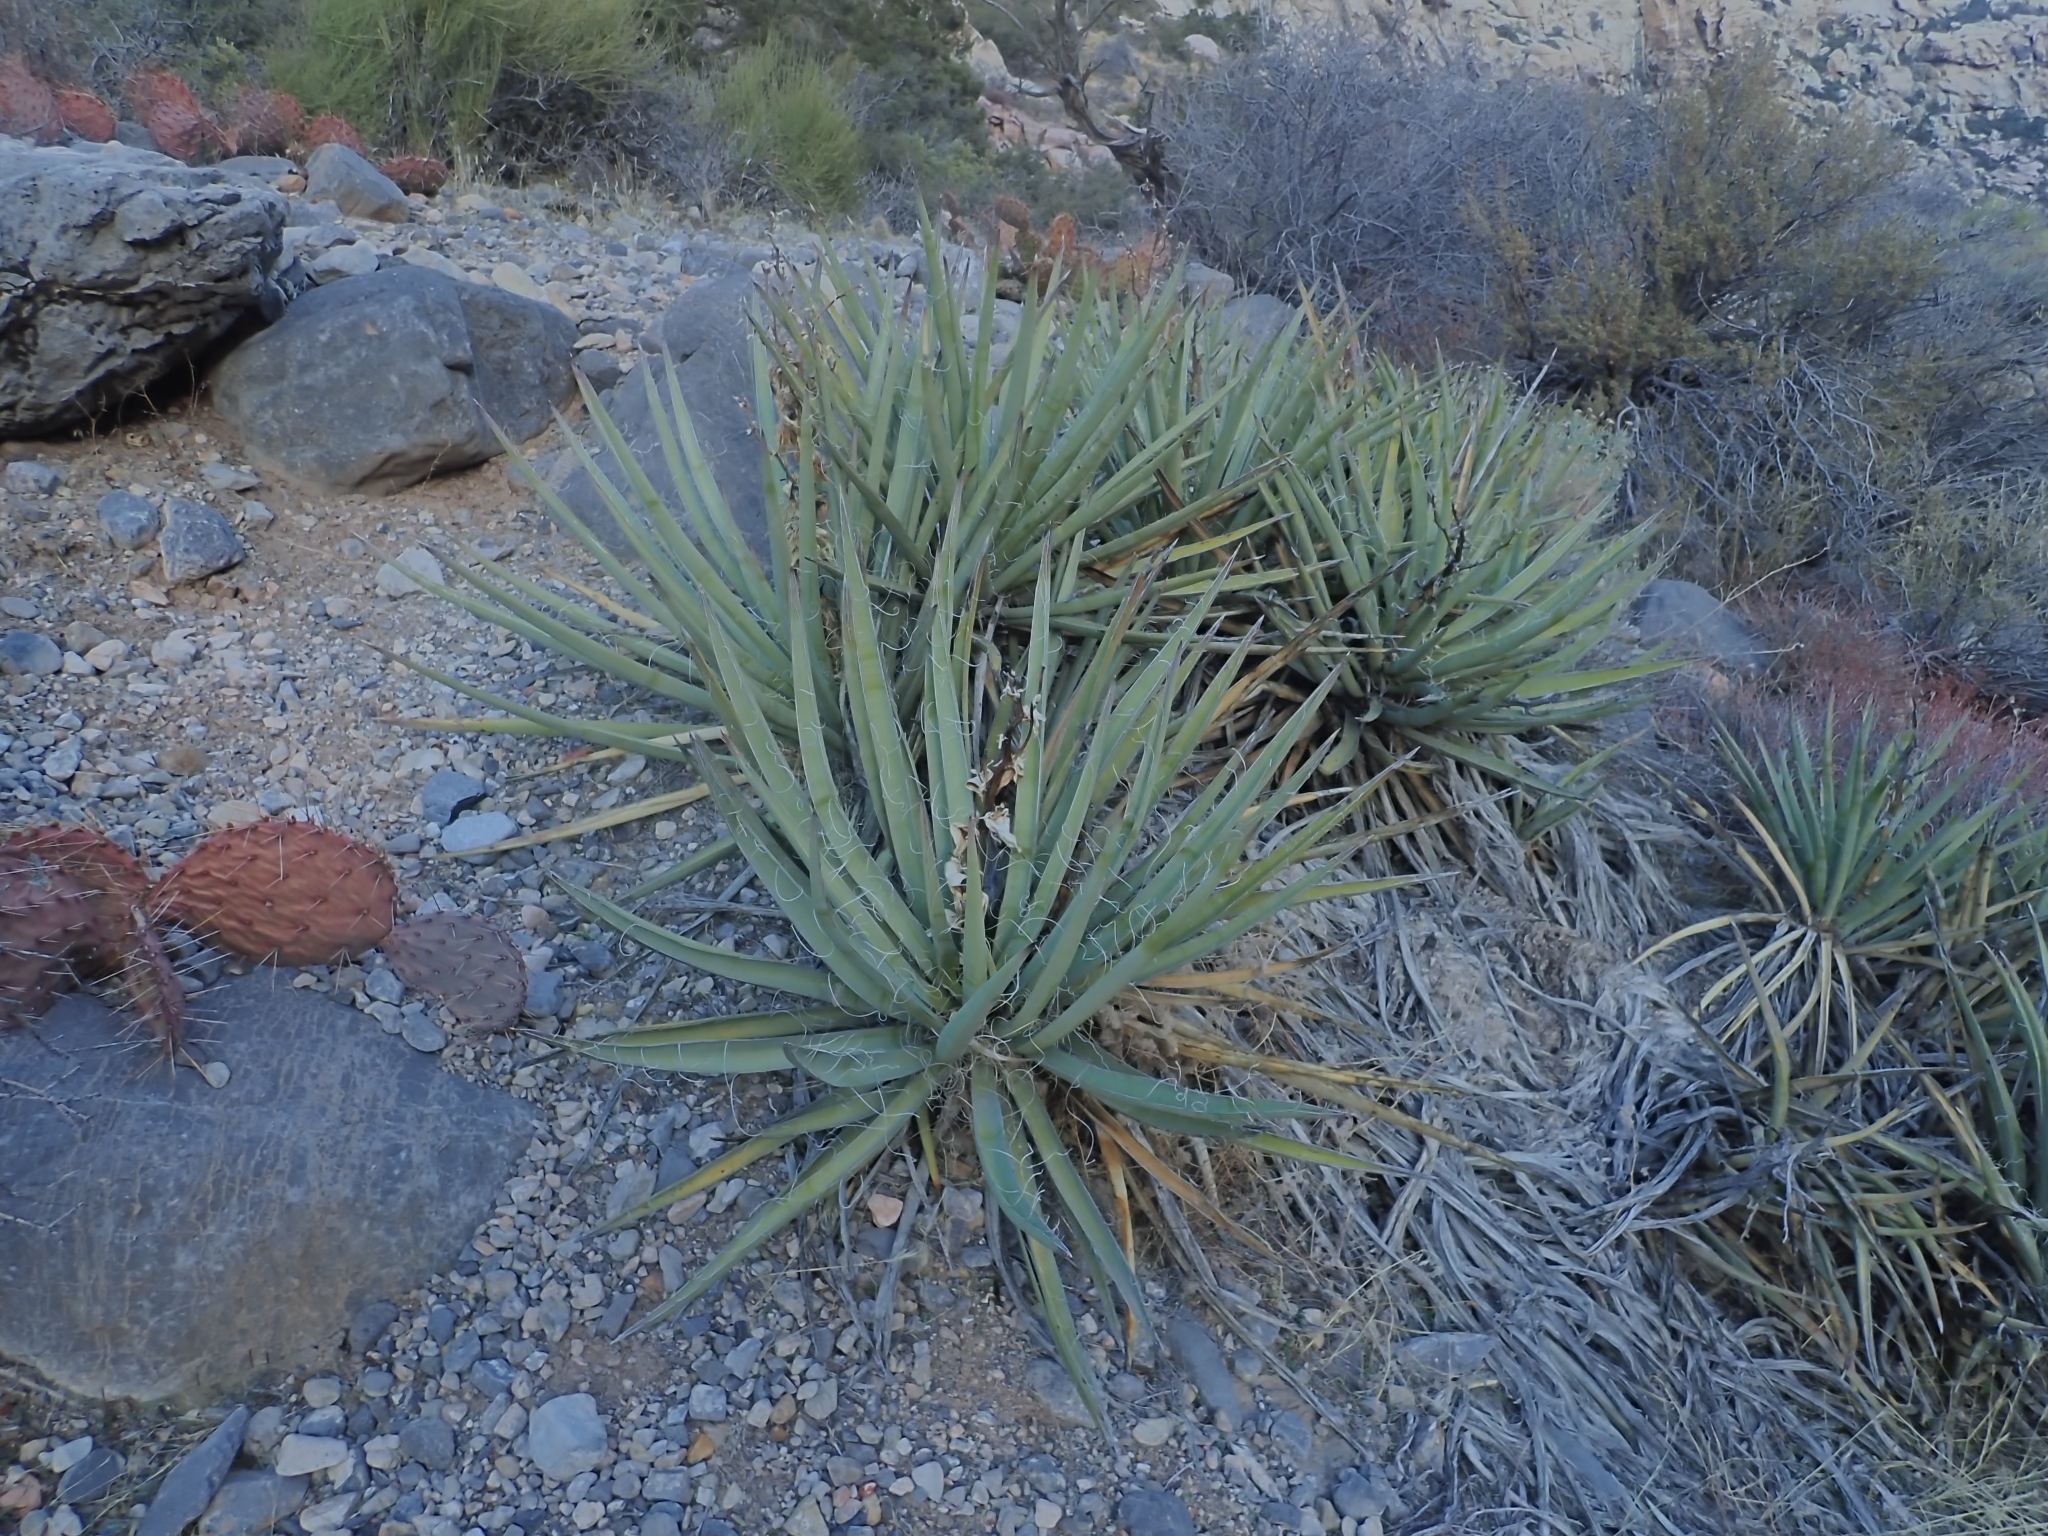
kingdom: Plantae
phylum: Tracheophyta
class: Liliopsida
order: Asparagales
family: Asparagaceae
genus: Yucca
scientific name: Yucca baccata
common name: Banana yucca
